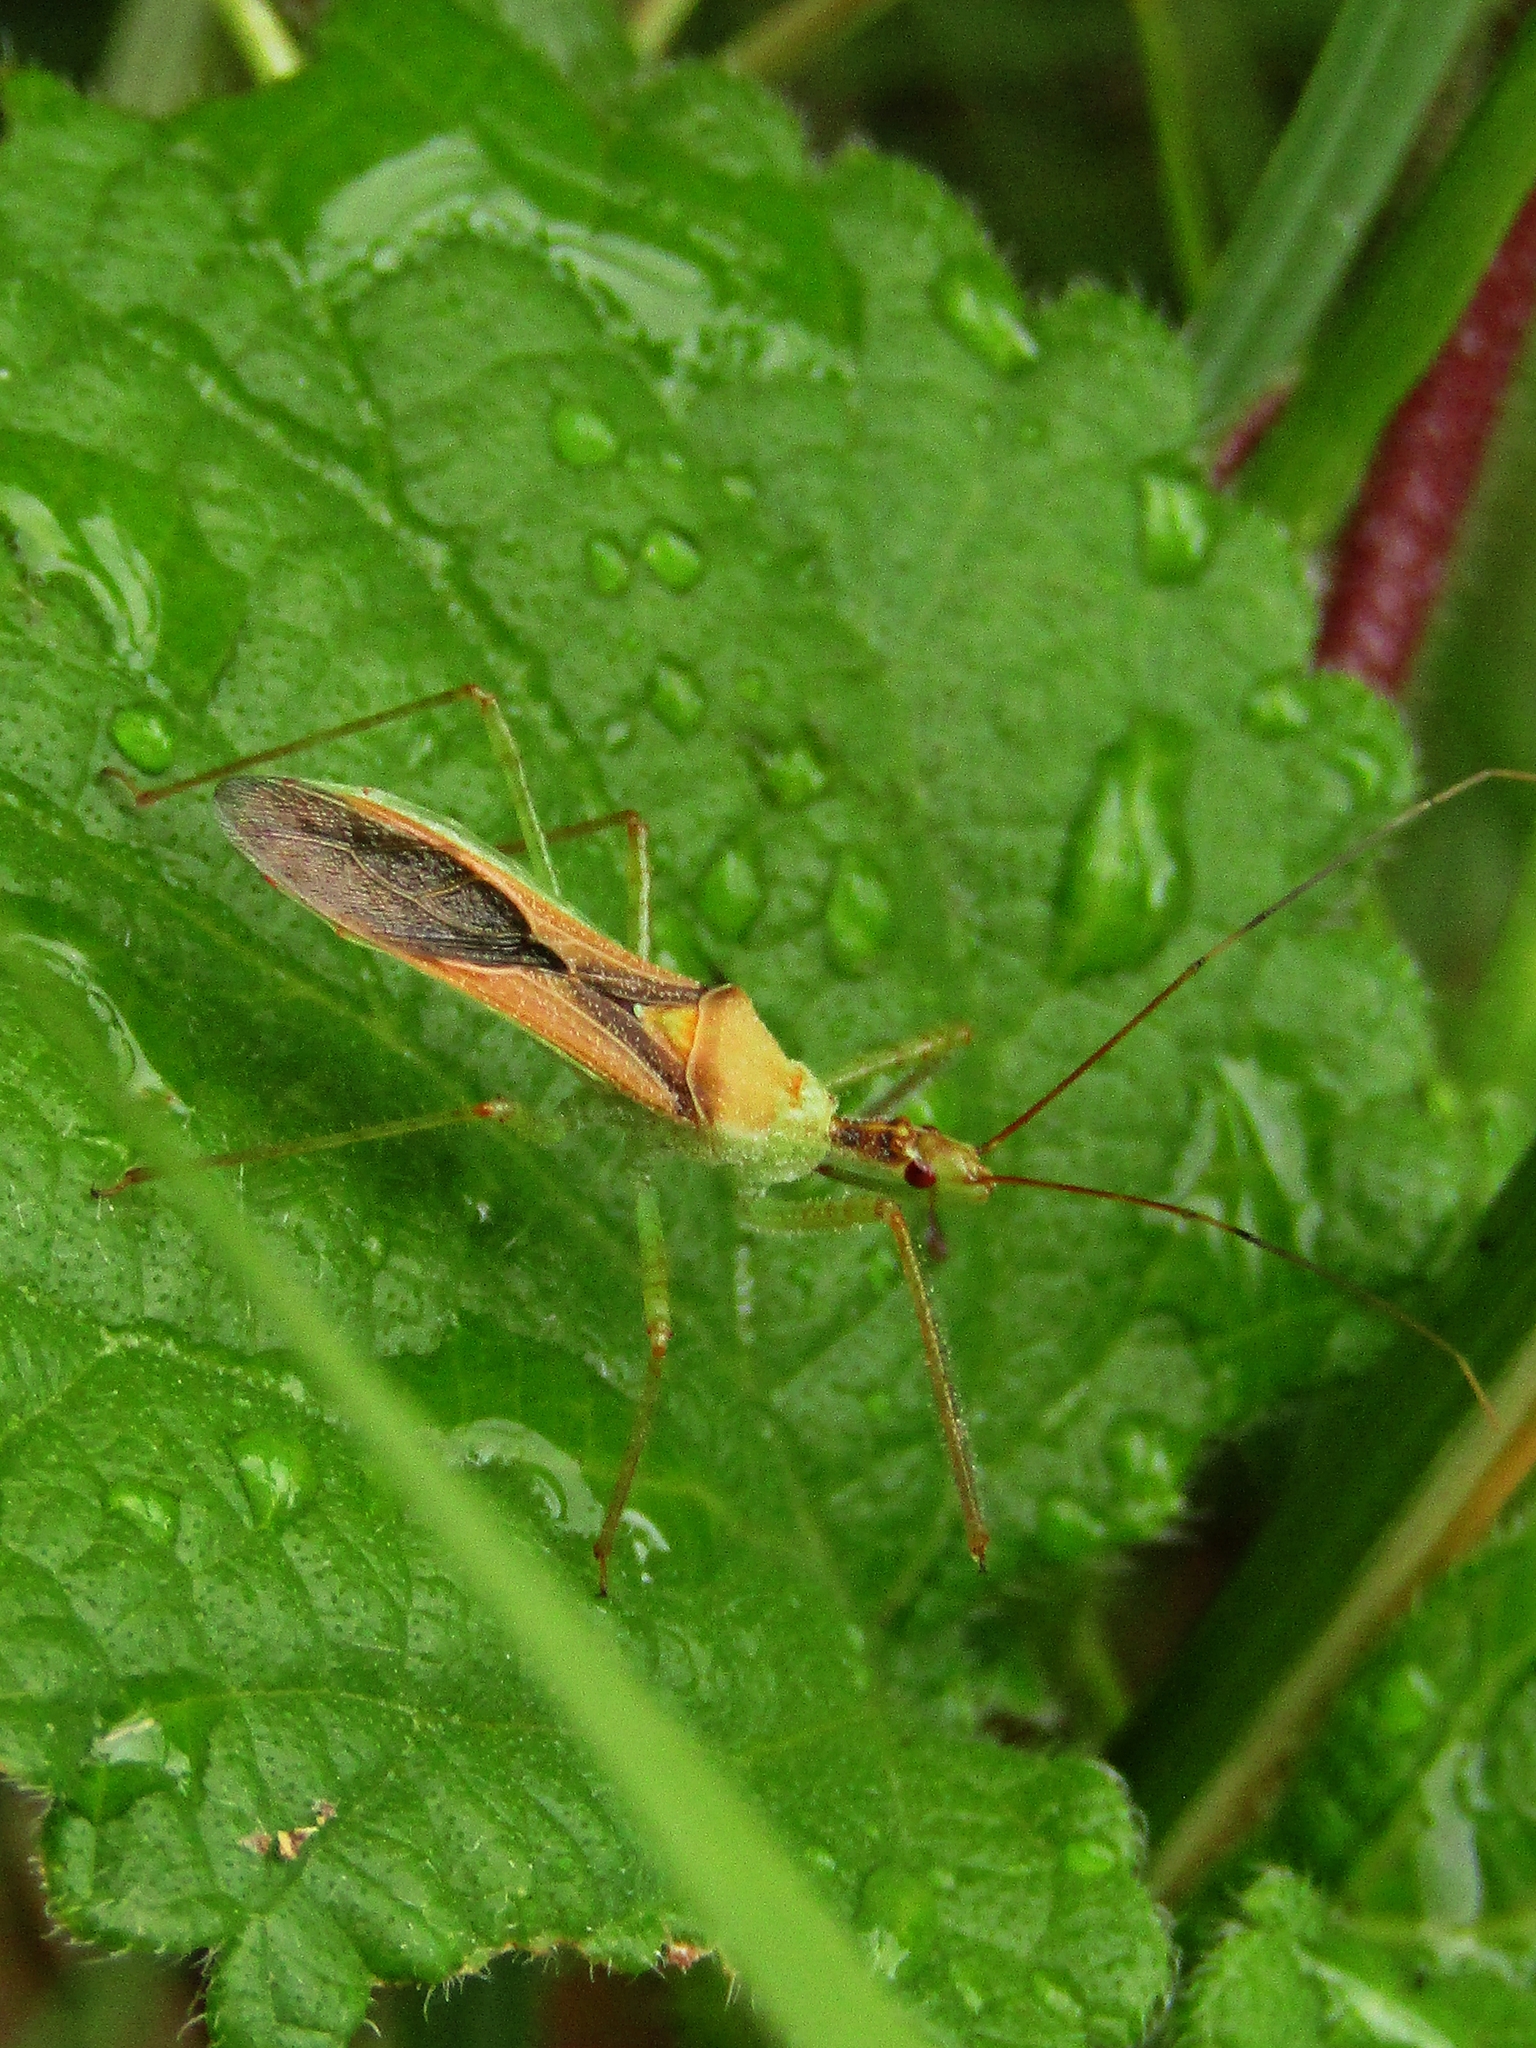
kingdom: Animalia
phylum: Arthropoda
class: Insecta
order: Hemiptera
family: Reduviidae
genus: Zelus
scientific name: Zelus renardii
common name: Assassin bug
